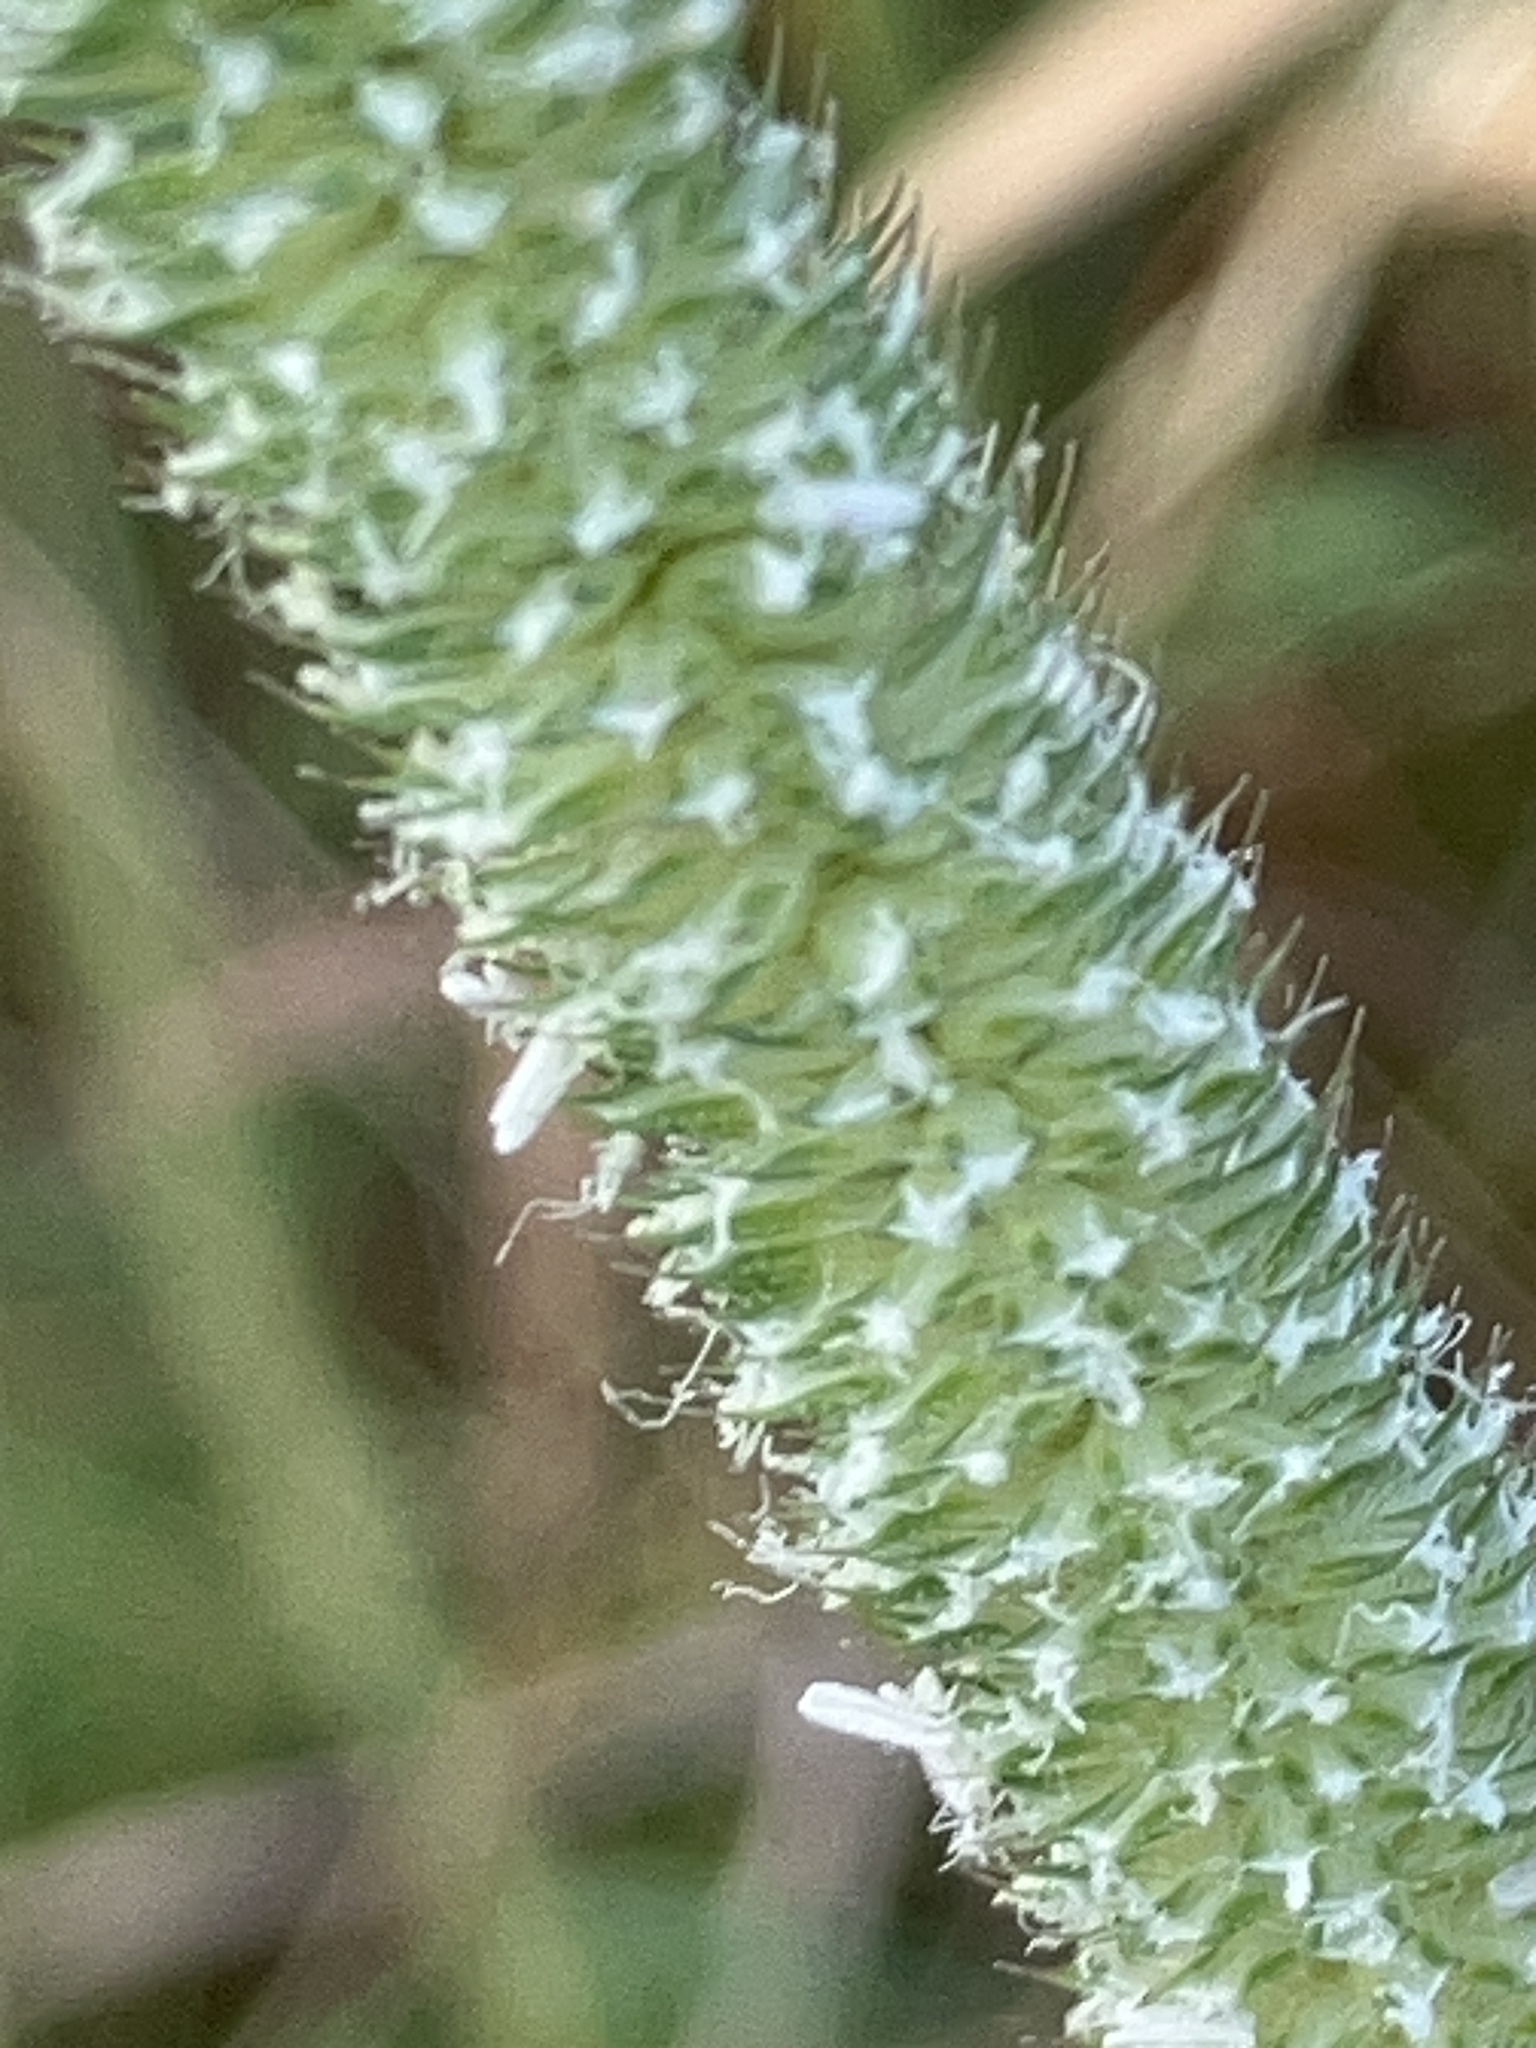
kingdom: Plantae
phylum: Tracheophyta
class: Liliopsida
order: Poales
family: Poaceae
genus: Phleum
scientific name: Phleum pratense
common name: Timothy grass
